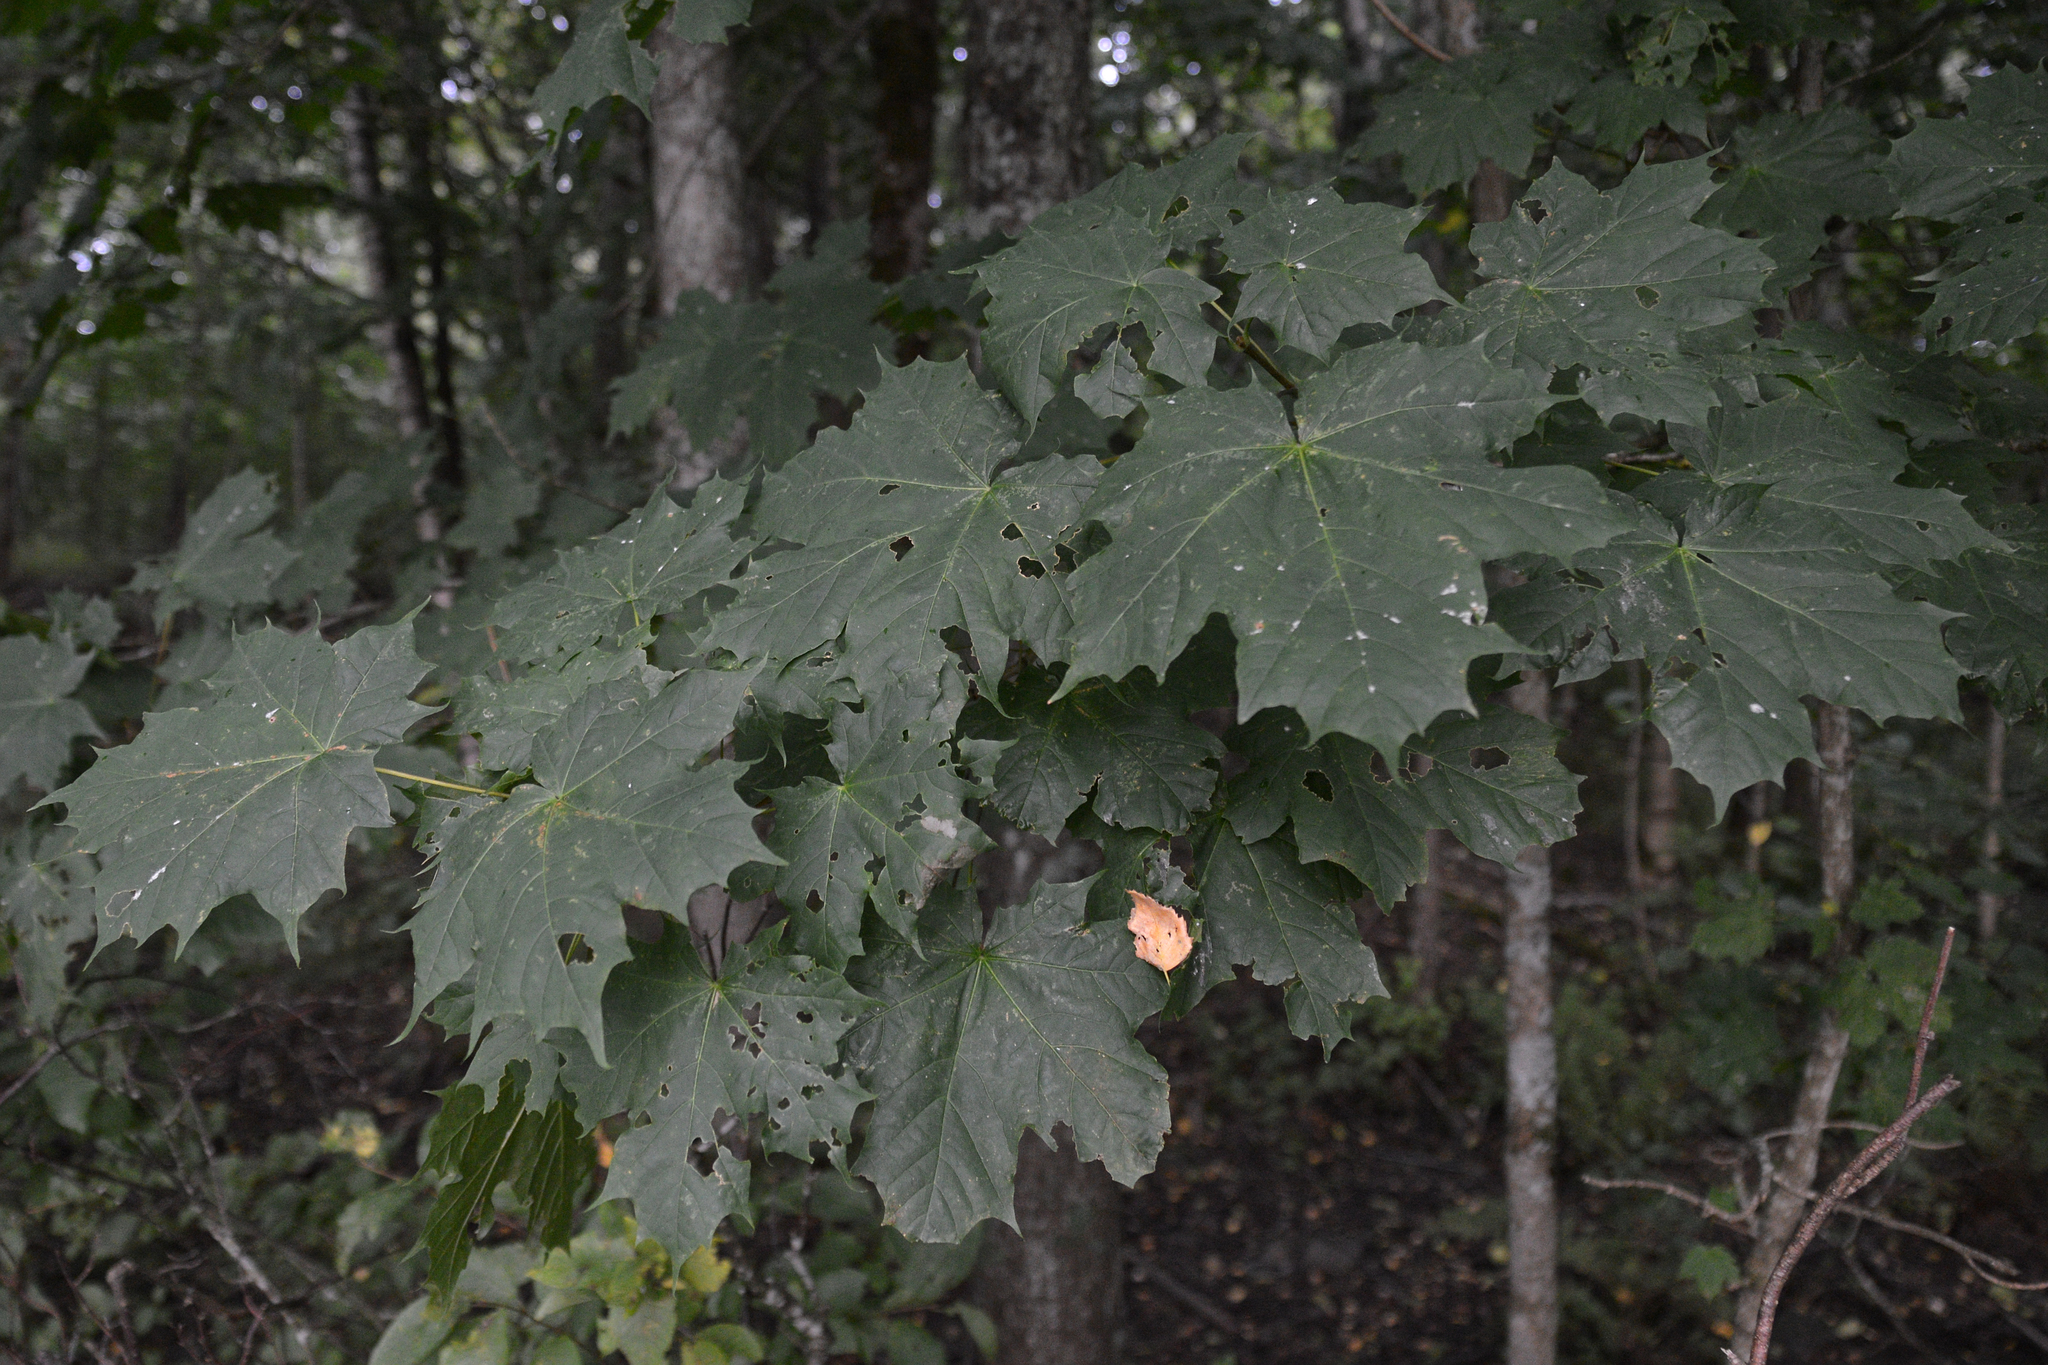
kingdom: Plantae
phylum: Tracheophyta
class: Magnoliopsida
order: Sapindales
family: Sapindaceae
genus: Acer
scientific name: Acer platanoides
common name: Norway maple
